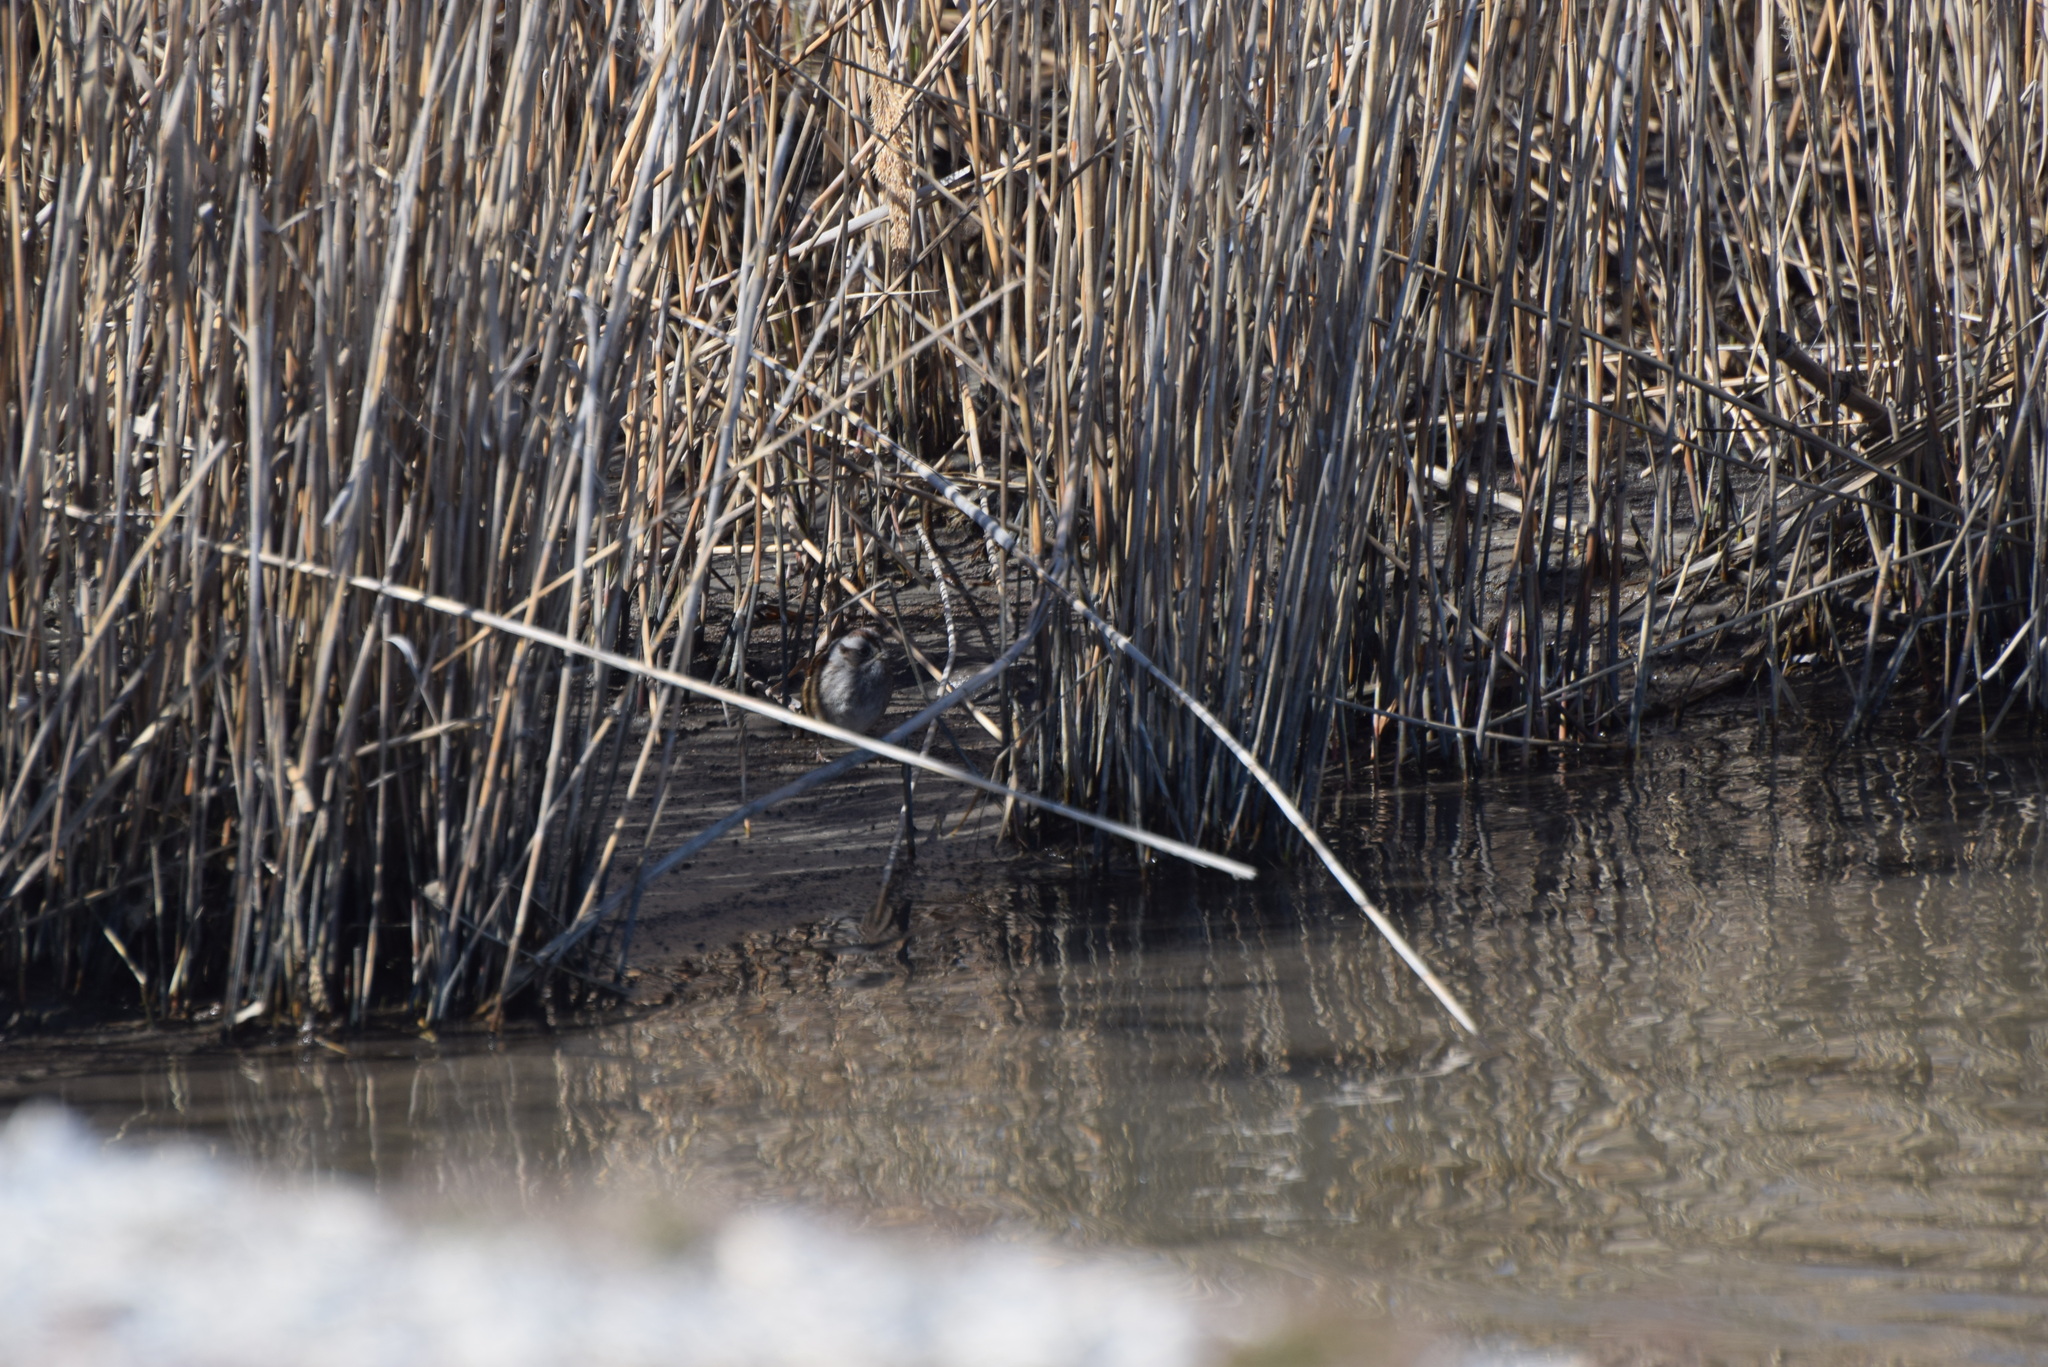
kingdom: Animalia
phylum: Chordata
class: Aves
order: Passeriformes
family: Passerellidae
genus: Melospiza
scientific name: Melospiza georgiana
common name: Swamp sparrow
